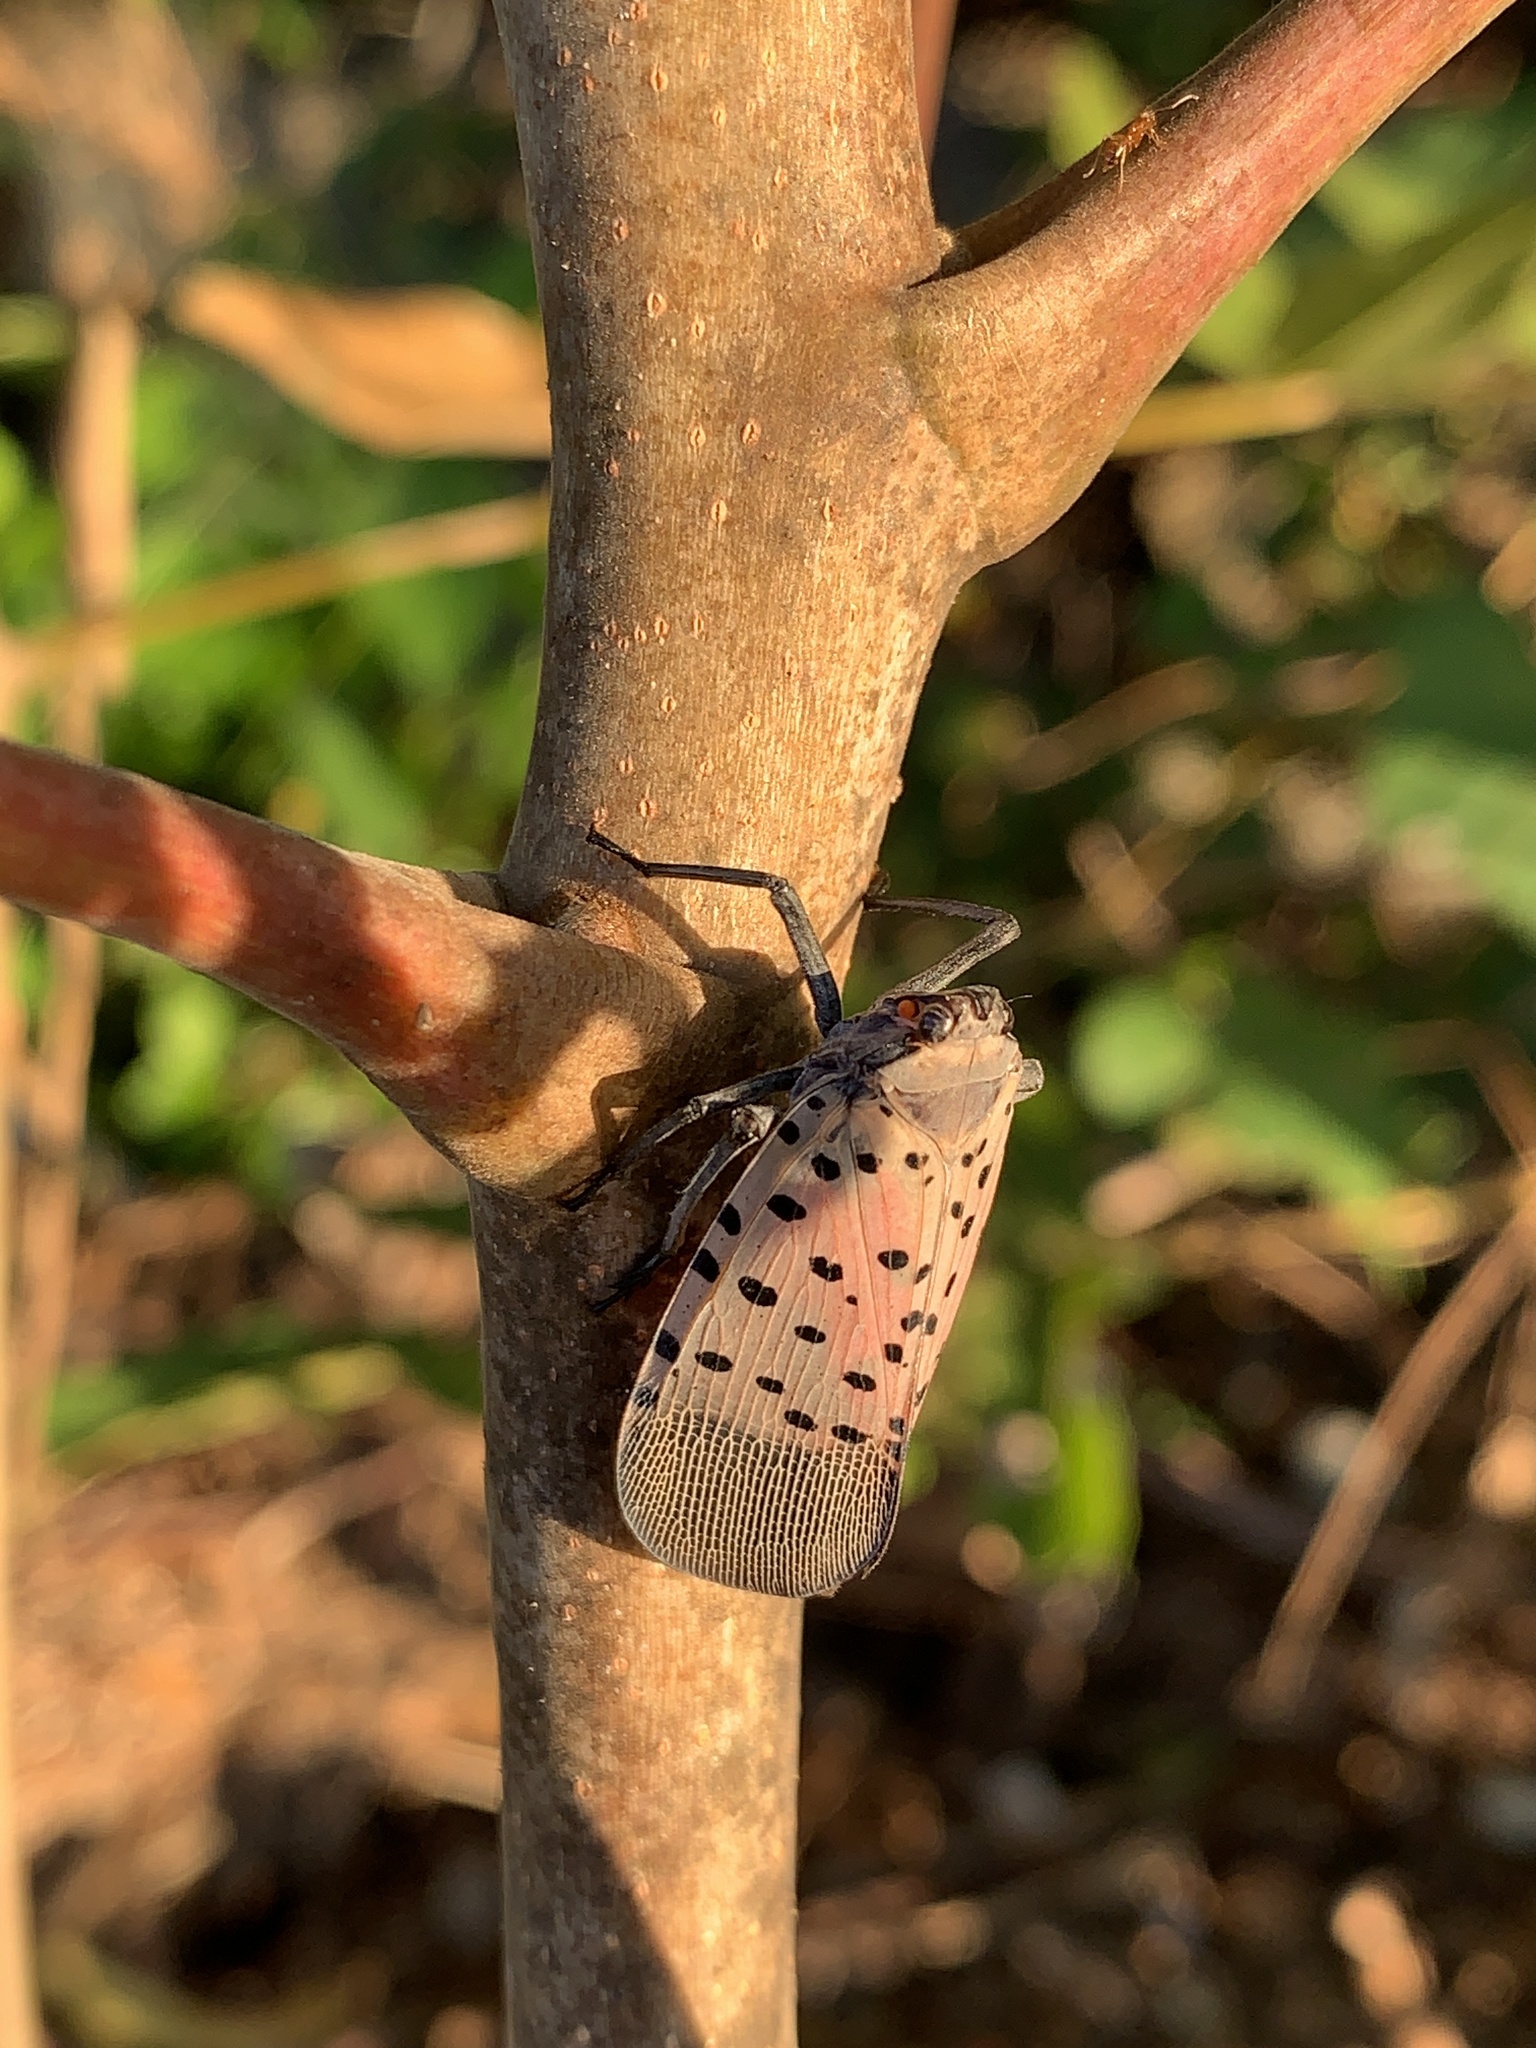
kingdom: Animalia
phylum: Arthropoda
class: Insecta
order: Hemiptera
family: Fulgoridae
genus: Lycorma
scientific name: Lycorma delicatula
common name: Spotted lanternfly
